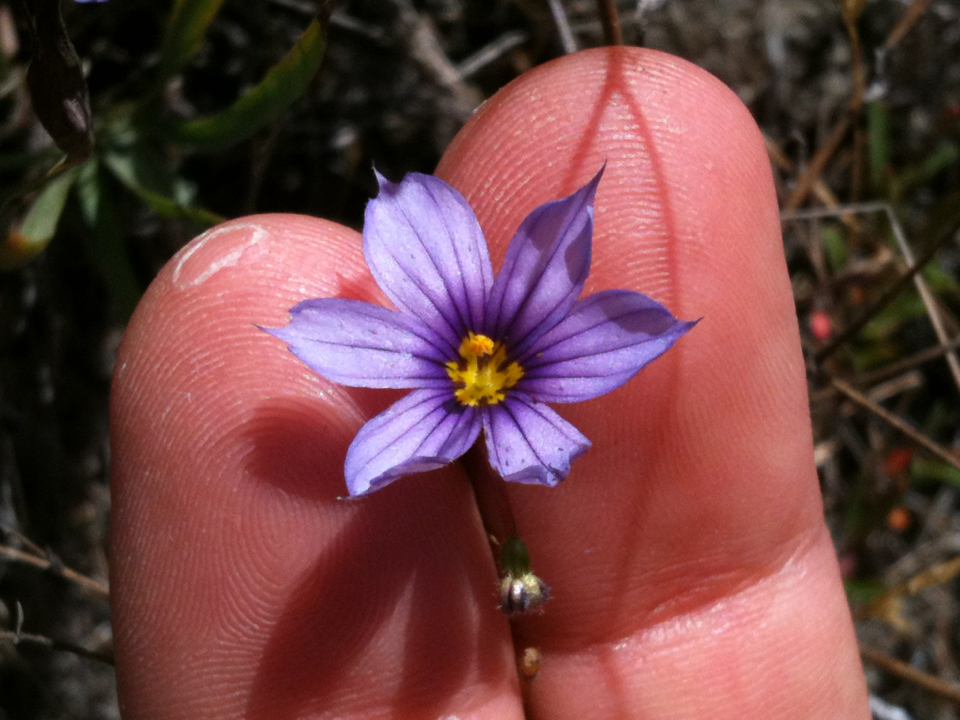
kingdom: Plantae
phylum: Tracheophyta
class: Liliopsida
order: Asparagales
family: Iridaceae
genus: Sisyrinchium
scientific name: Sisyrinchium bellum
